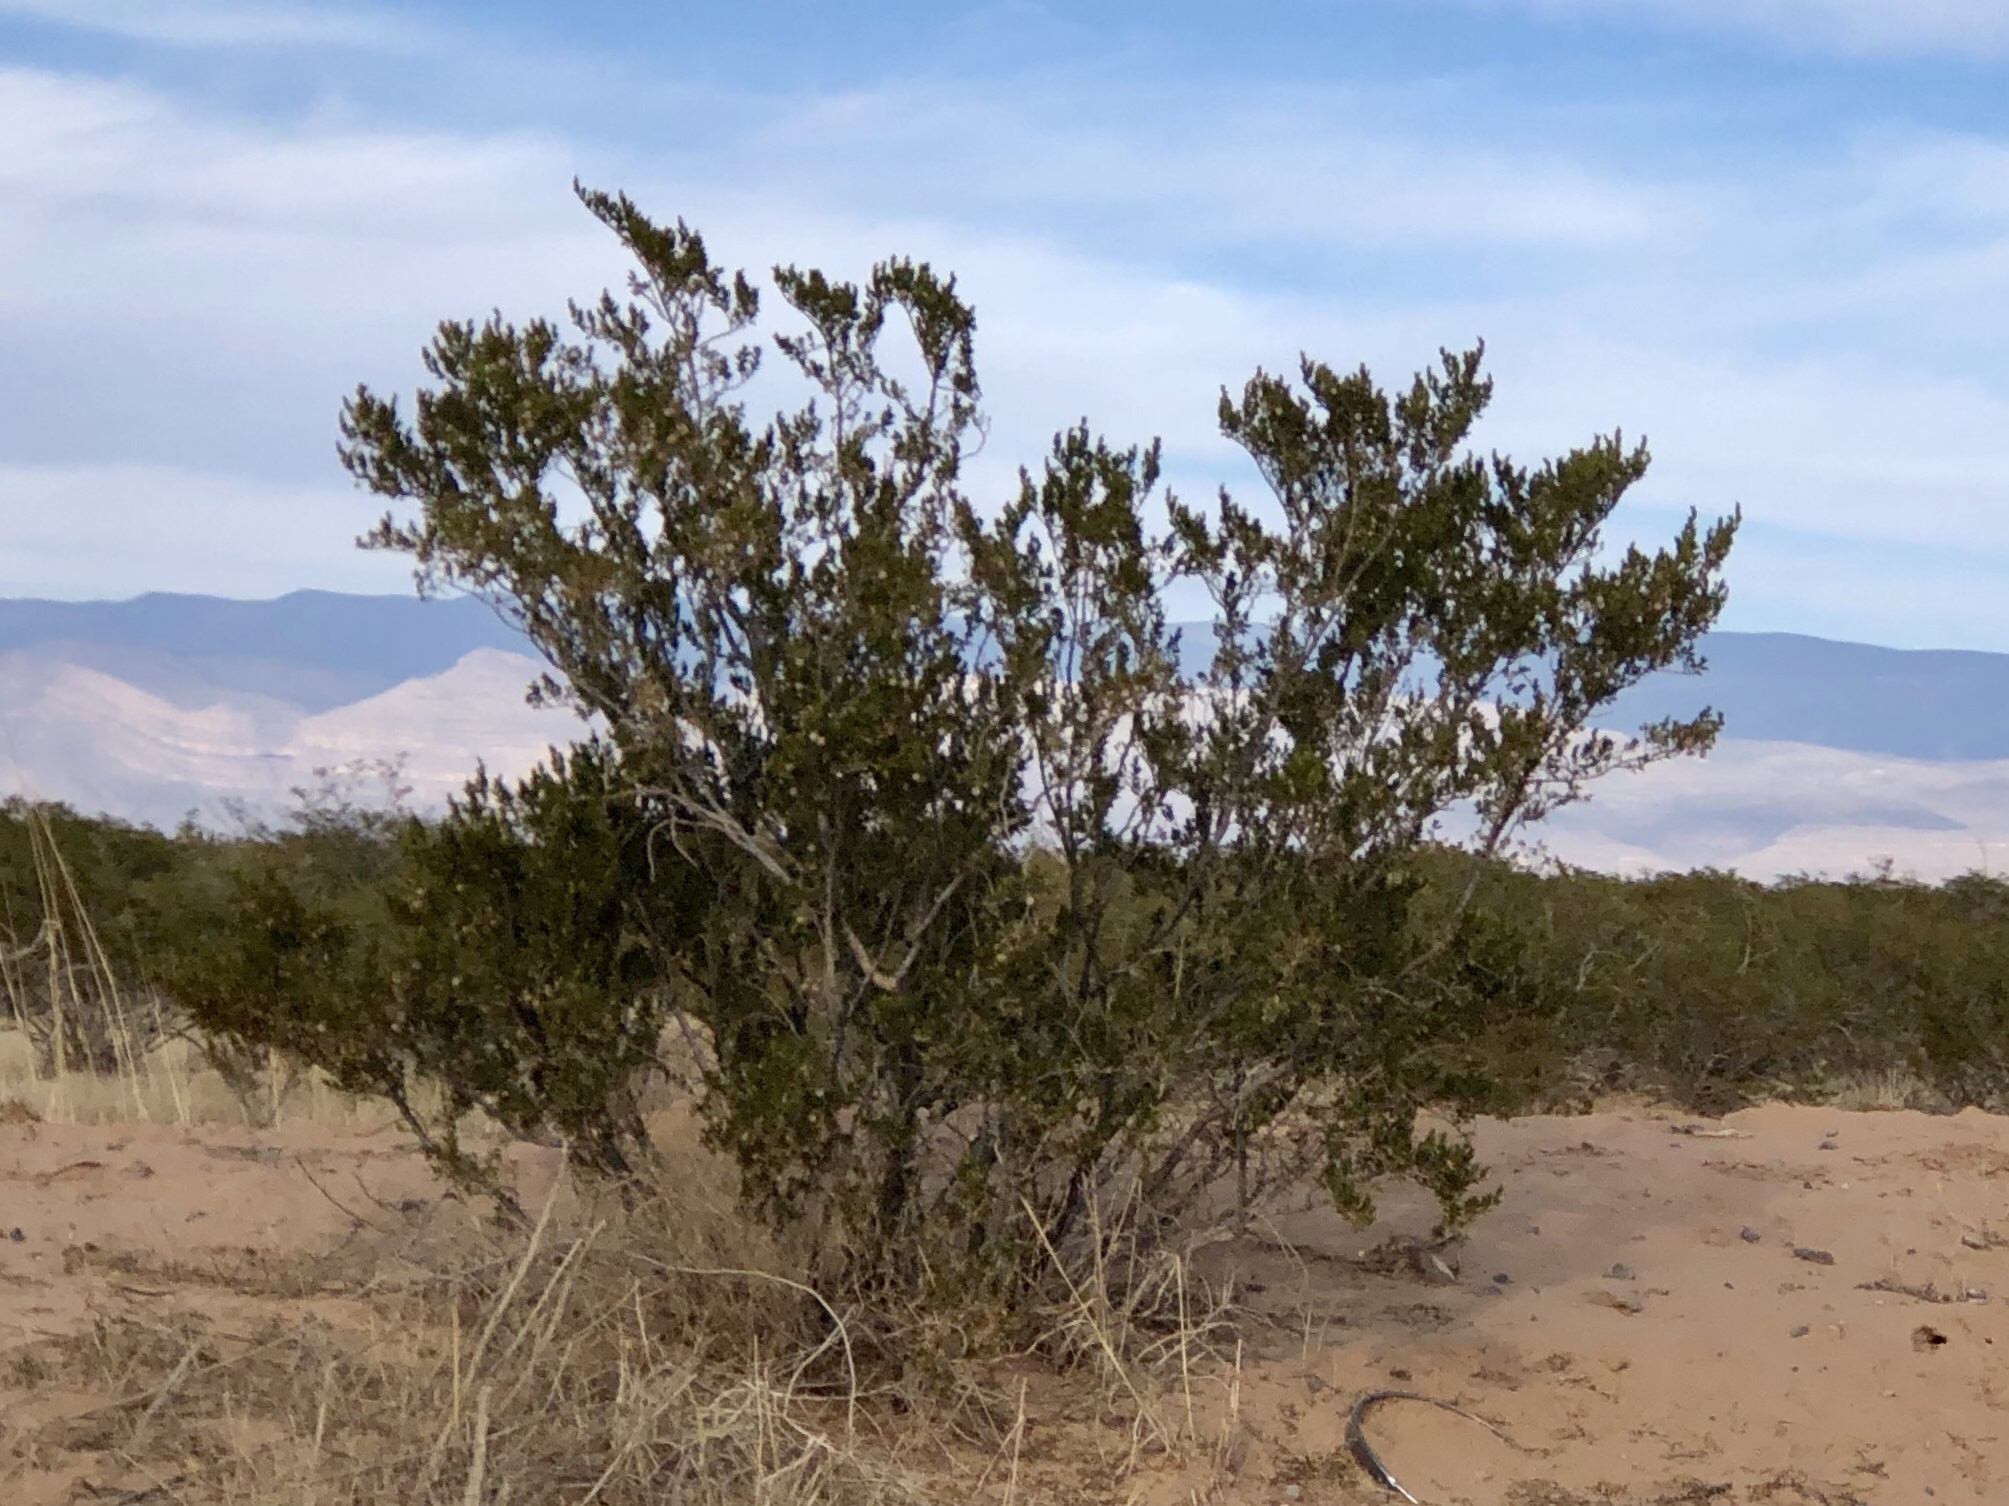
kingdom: Plantae
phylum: Tracheophyta
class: Magnoliopsida
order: Zygophyllales
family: Zygophyllaceae
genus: Larrea
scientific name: Larrea tridentata
